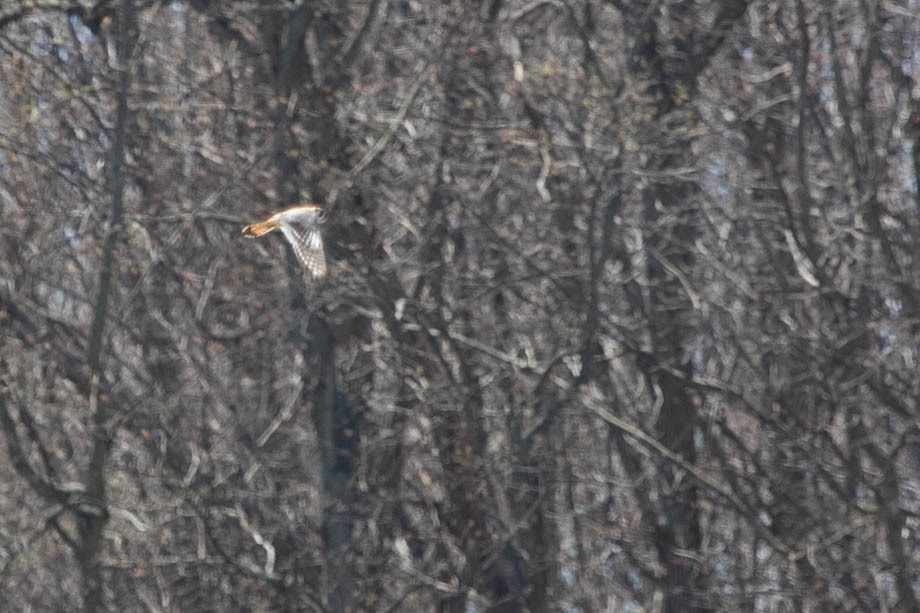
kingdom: Animalia
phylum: Chordata
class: Aves
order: Falconiformes
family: Falconidae
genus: Falco
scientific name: Falco sparverius
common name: American kestrel
